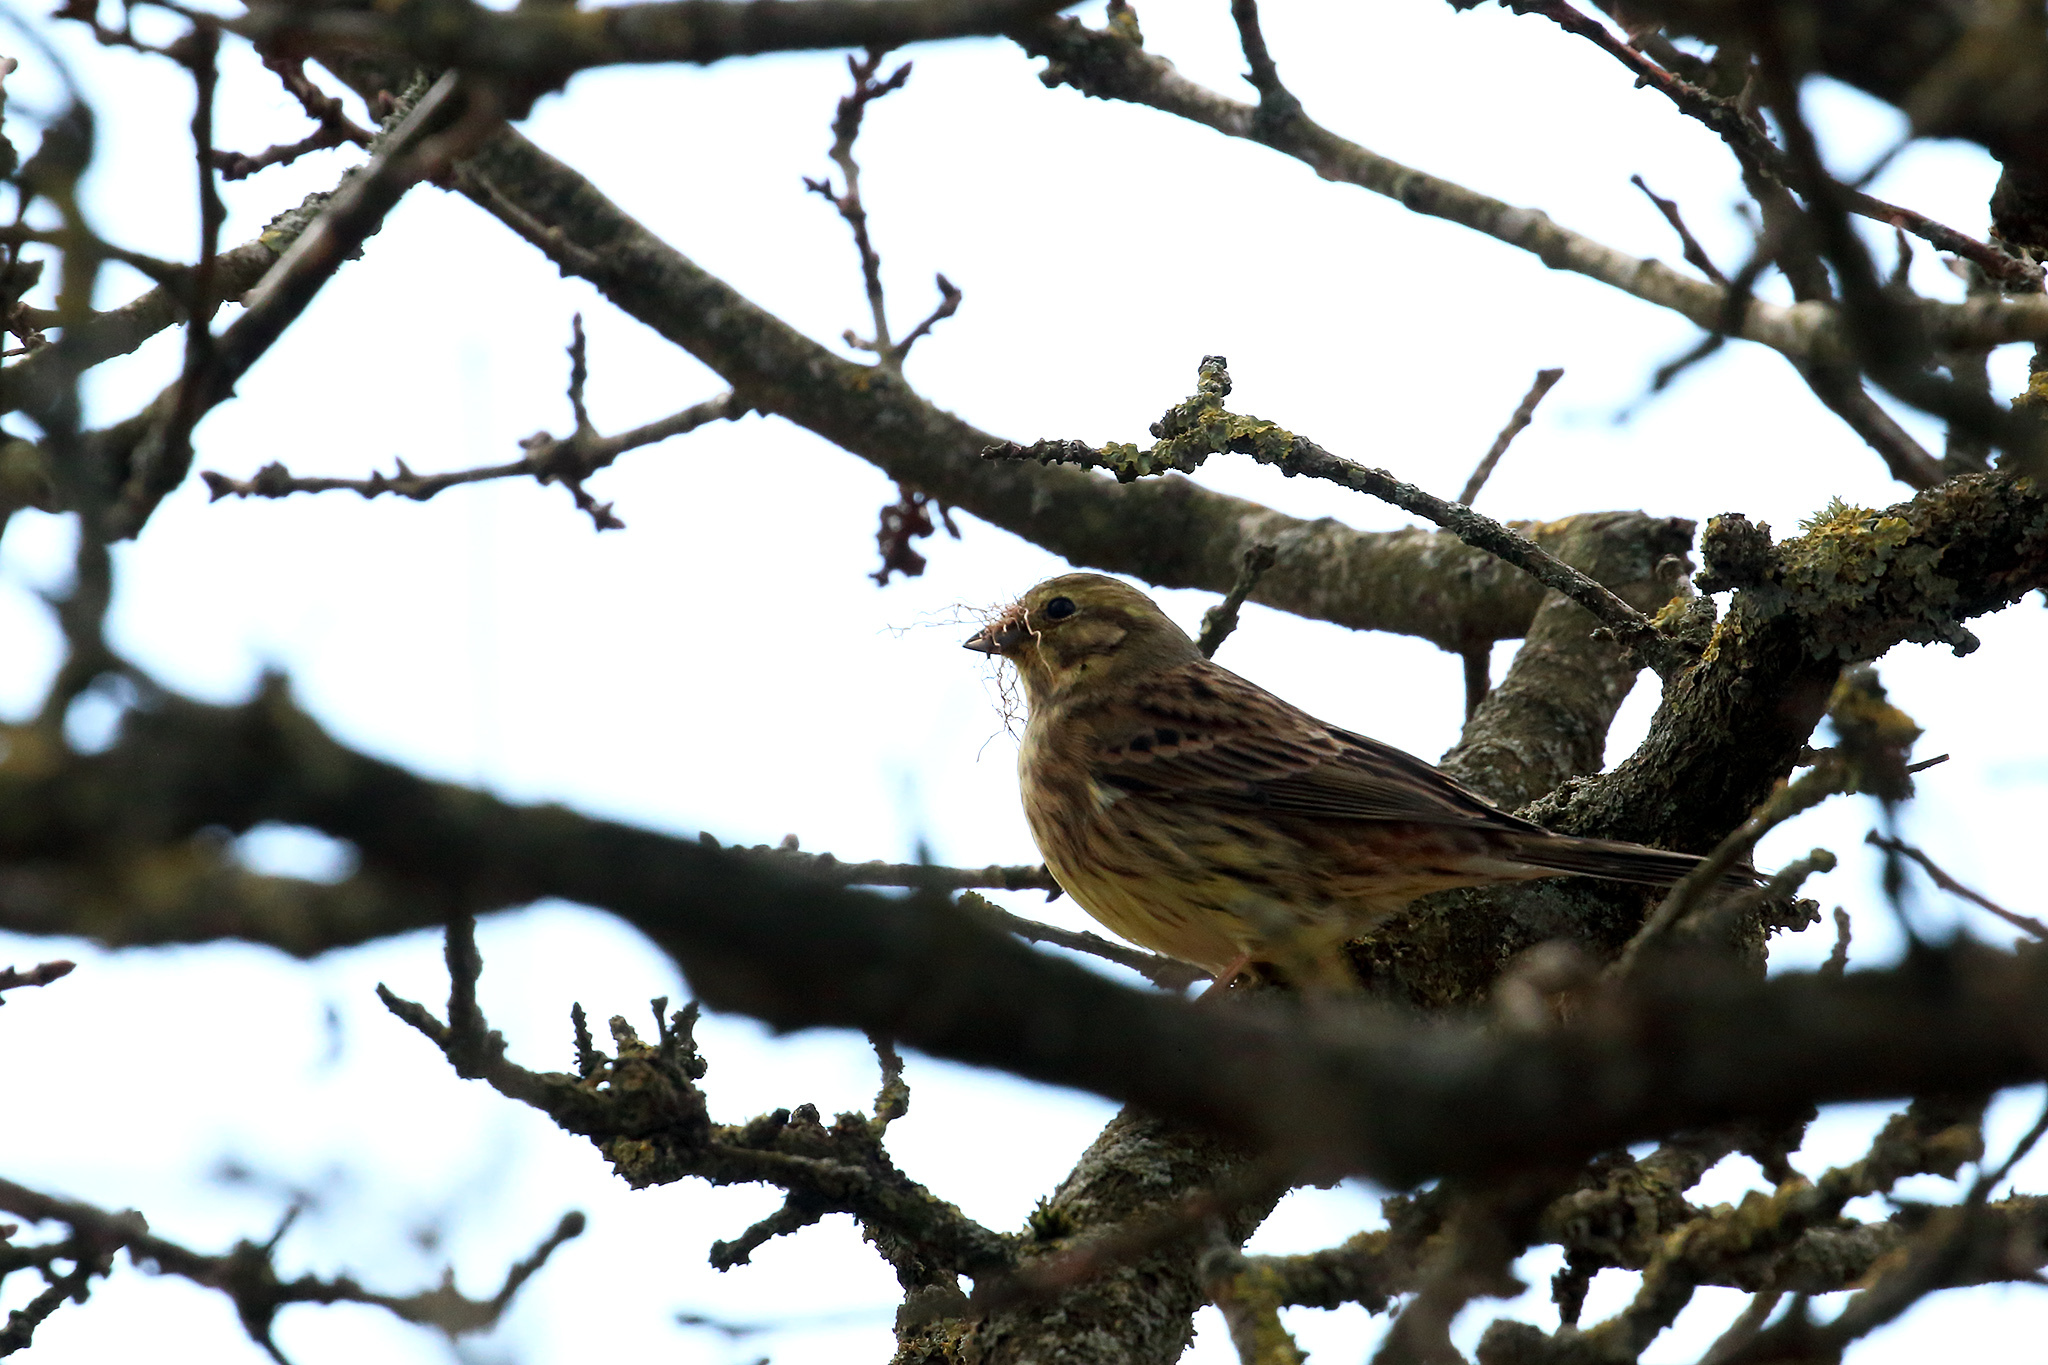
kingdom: Animalia
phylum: Chordata
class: Aves
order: Passeriformes
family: Emberizidae
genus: Emberiza
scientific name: Emberiza citrinella
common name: Yellowhammer
